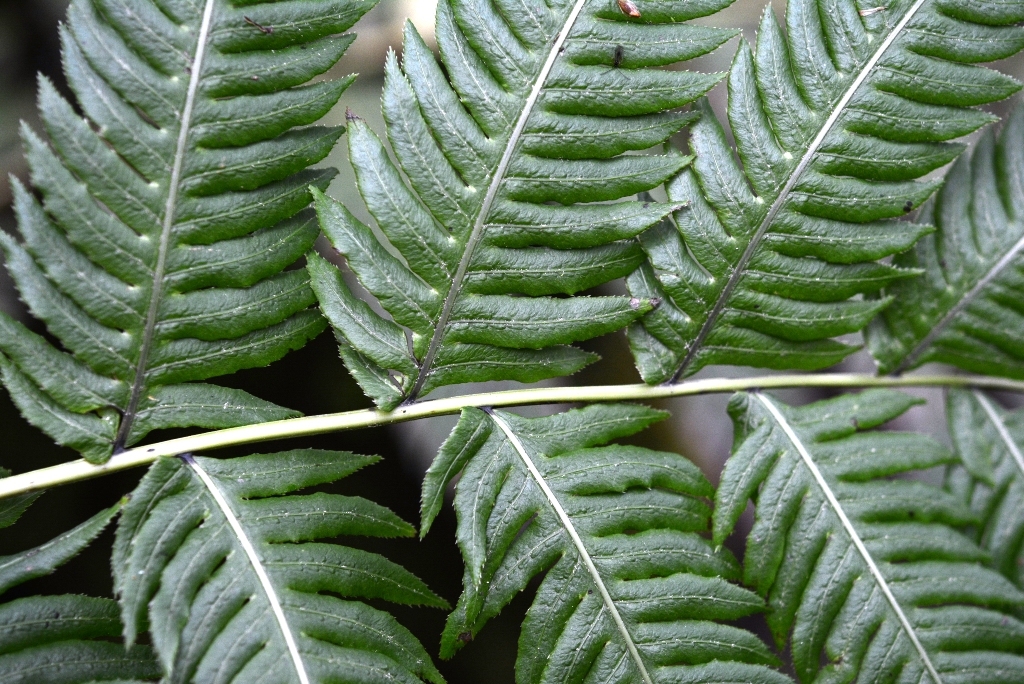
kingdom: Plantae
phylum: Tracheophyta
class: Polypodiopsida
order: Polypodiales
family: Blechnaceae
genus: Woodwardia
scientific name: Woodwardia spinulosa
